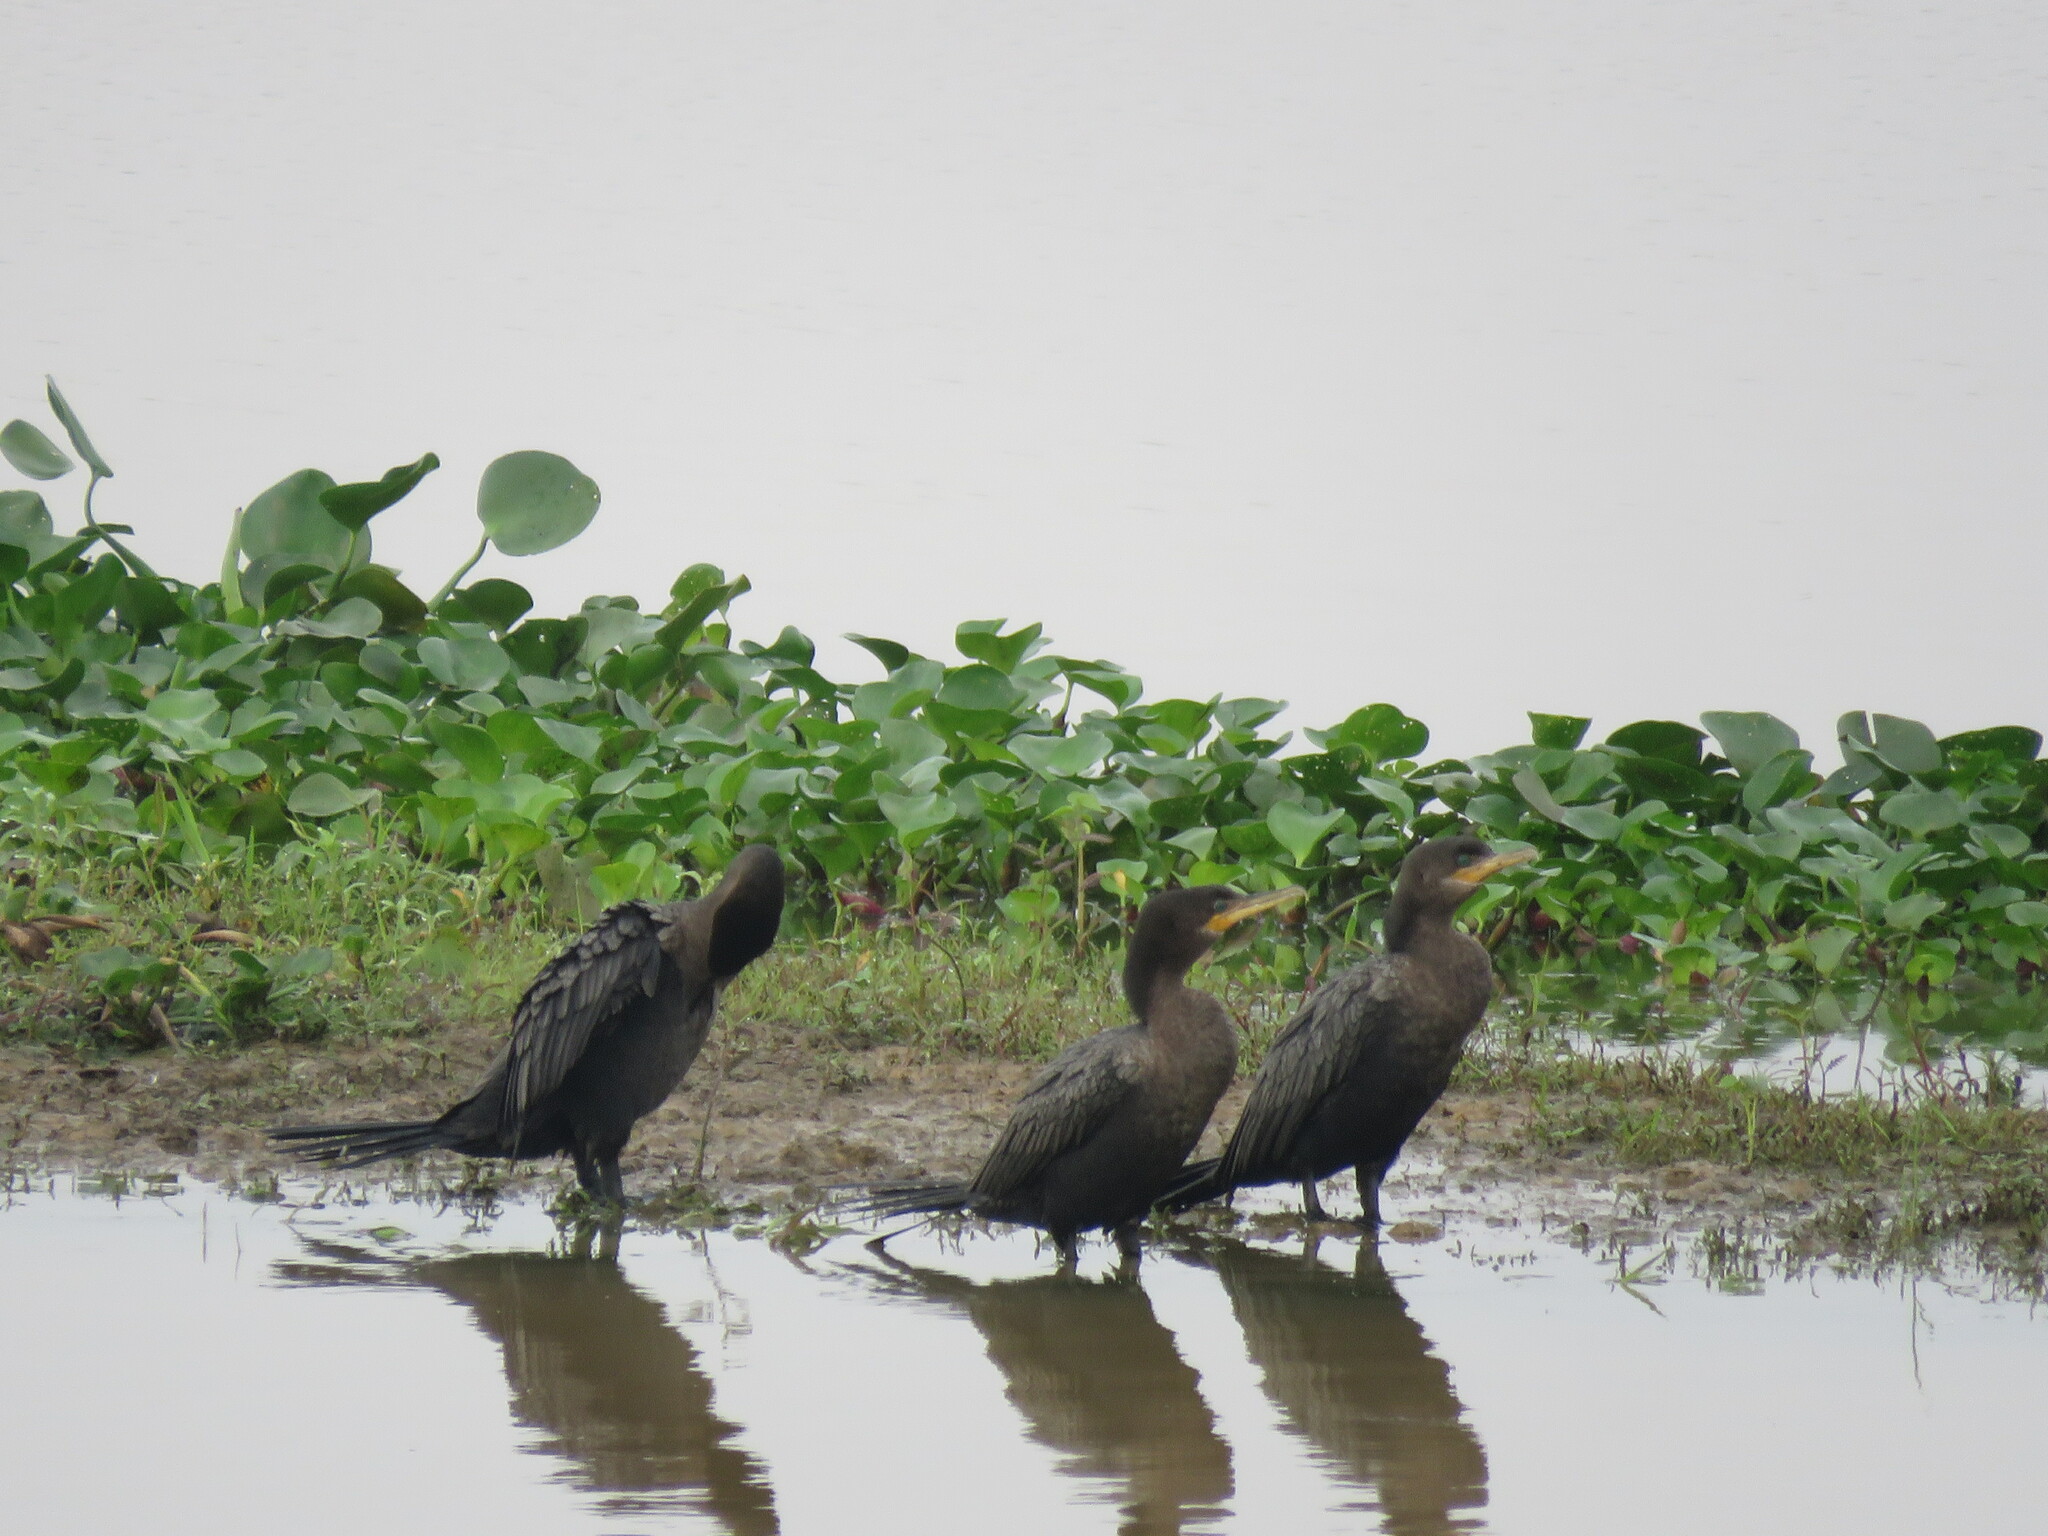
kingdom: Animalia
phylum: Chordata
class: Aves
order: Suliformes
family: Phalacrocoracidae
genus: Phalacrocorax
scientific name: Phalacrocorax brasilianus
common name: Neotropic cormorant
